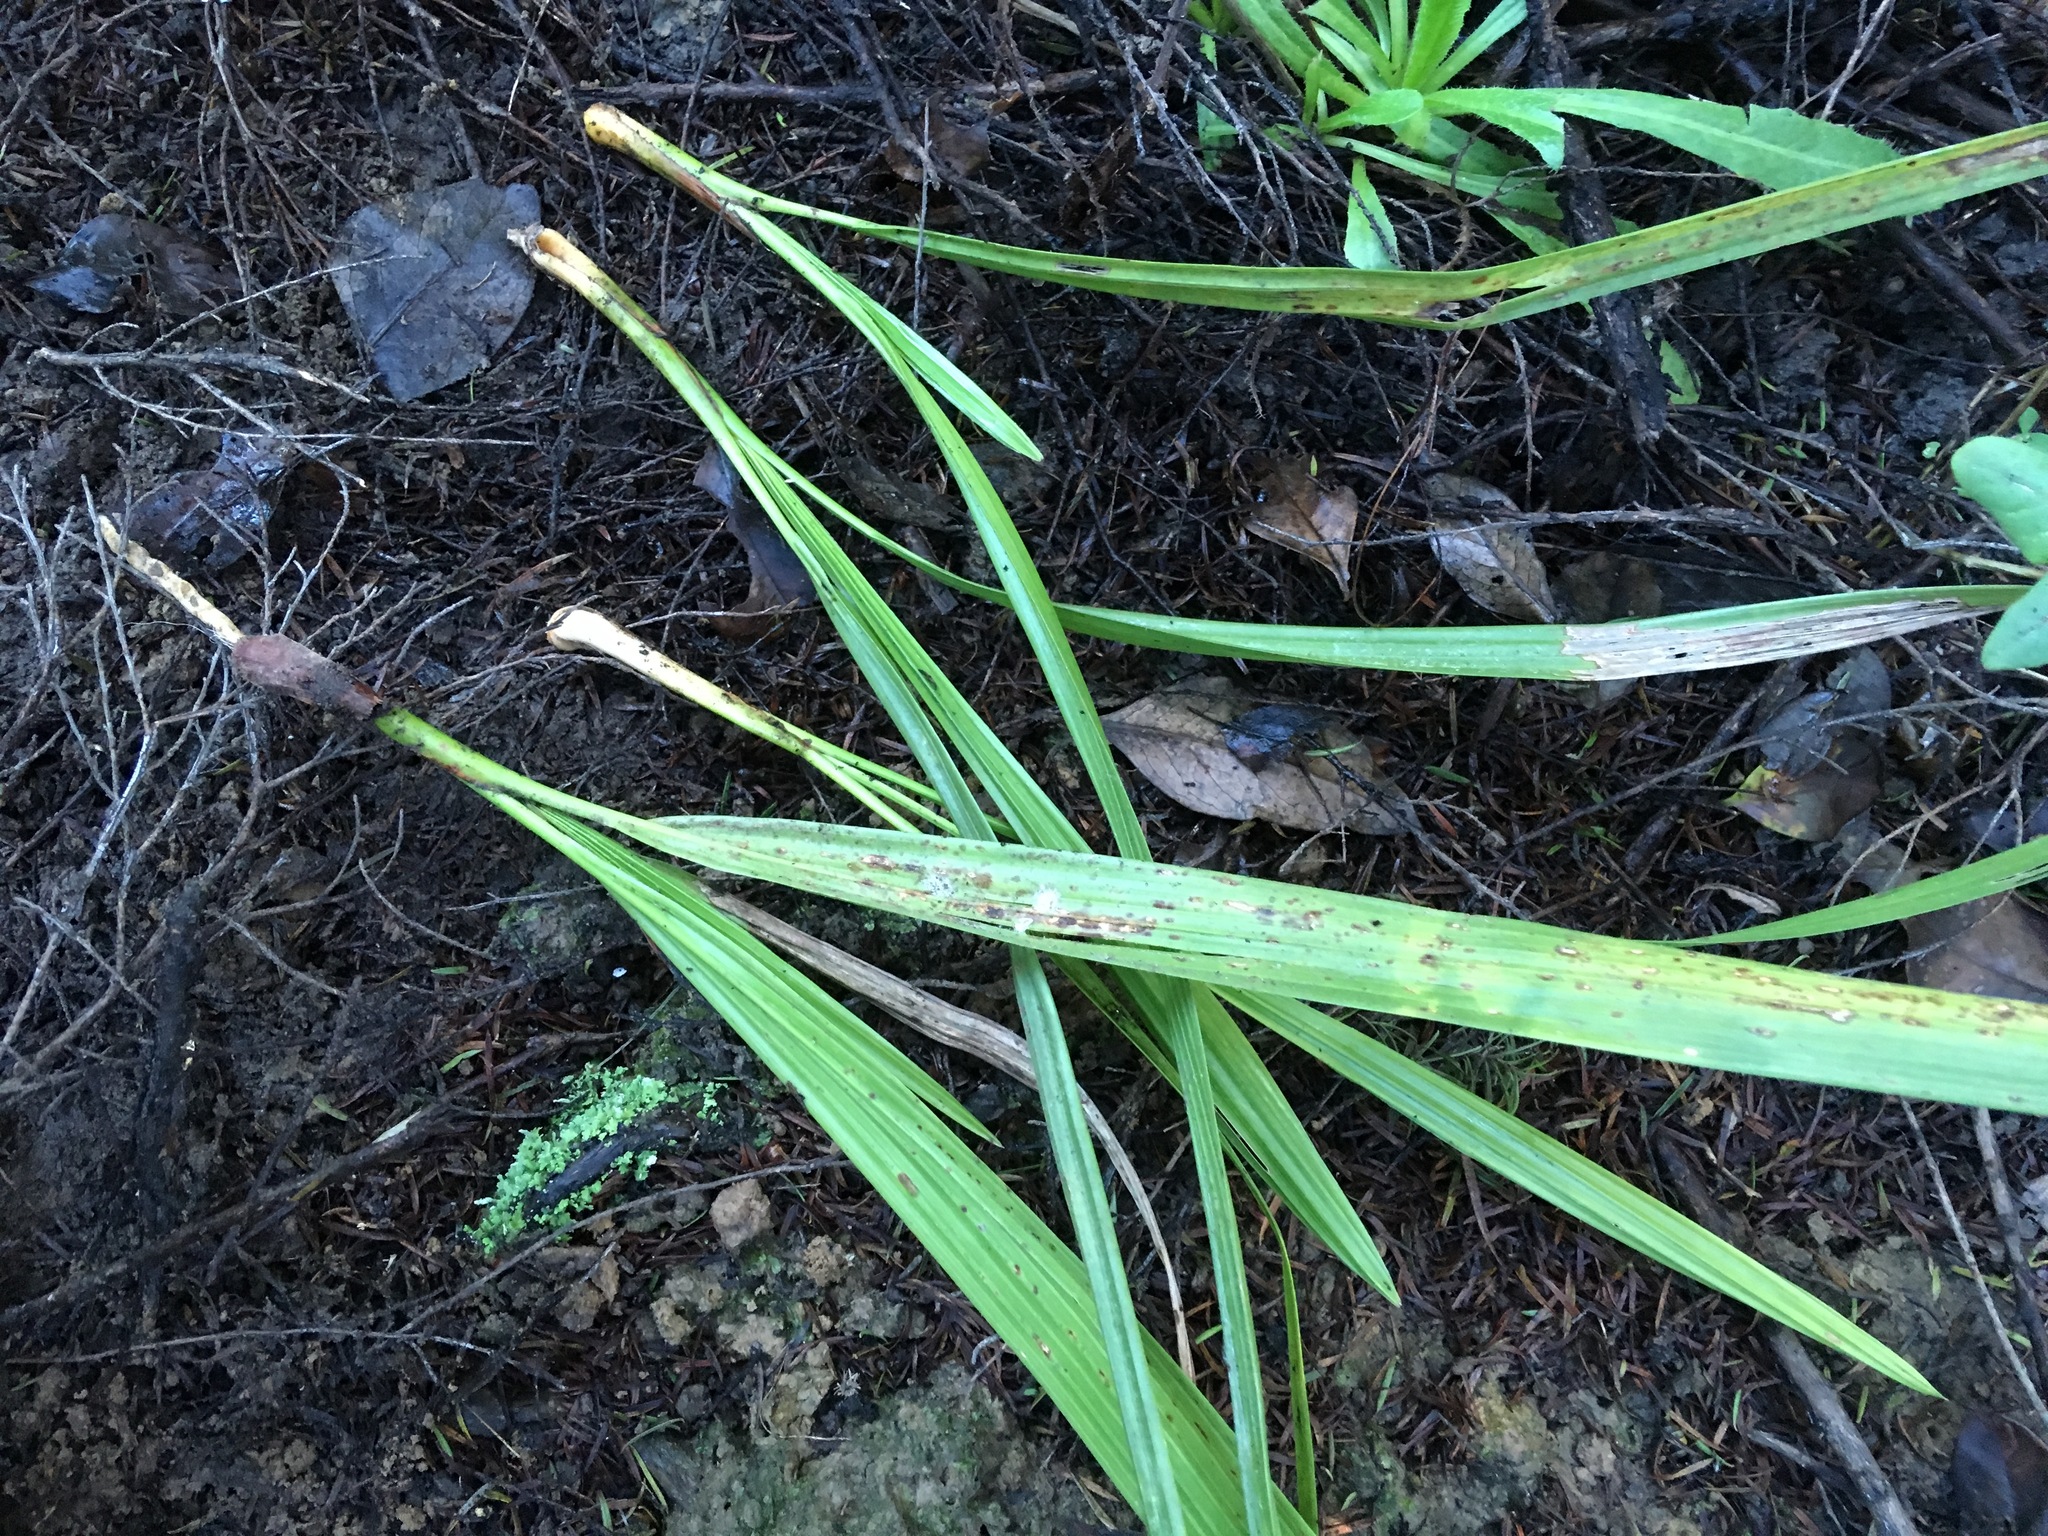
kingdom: Plantae
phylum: Tracheophyta
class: Liliopsida
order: Arecales
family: Arecaceae
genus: Phoenix
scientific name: Phoenix canariensis
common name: Canary island date palm
